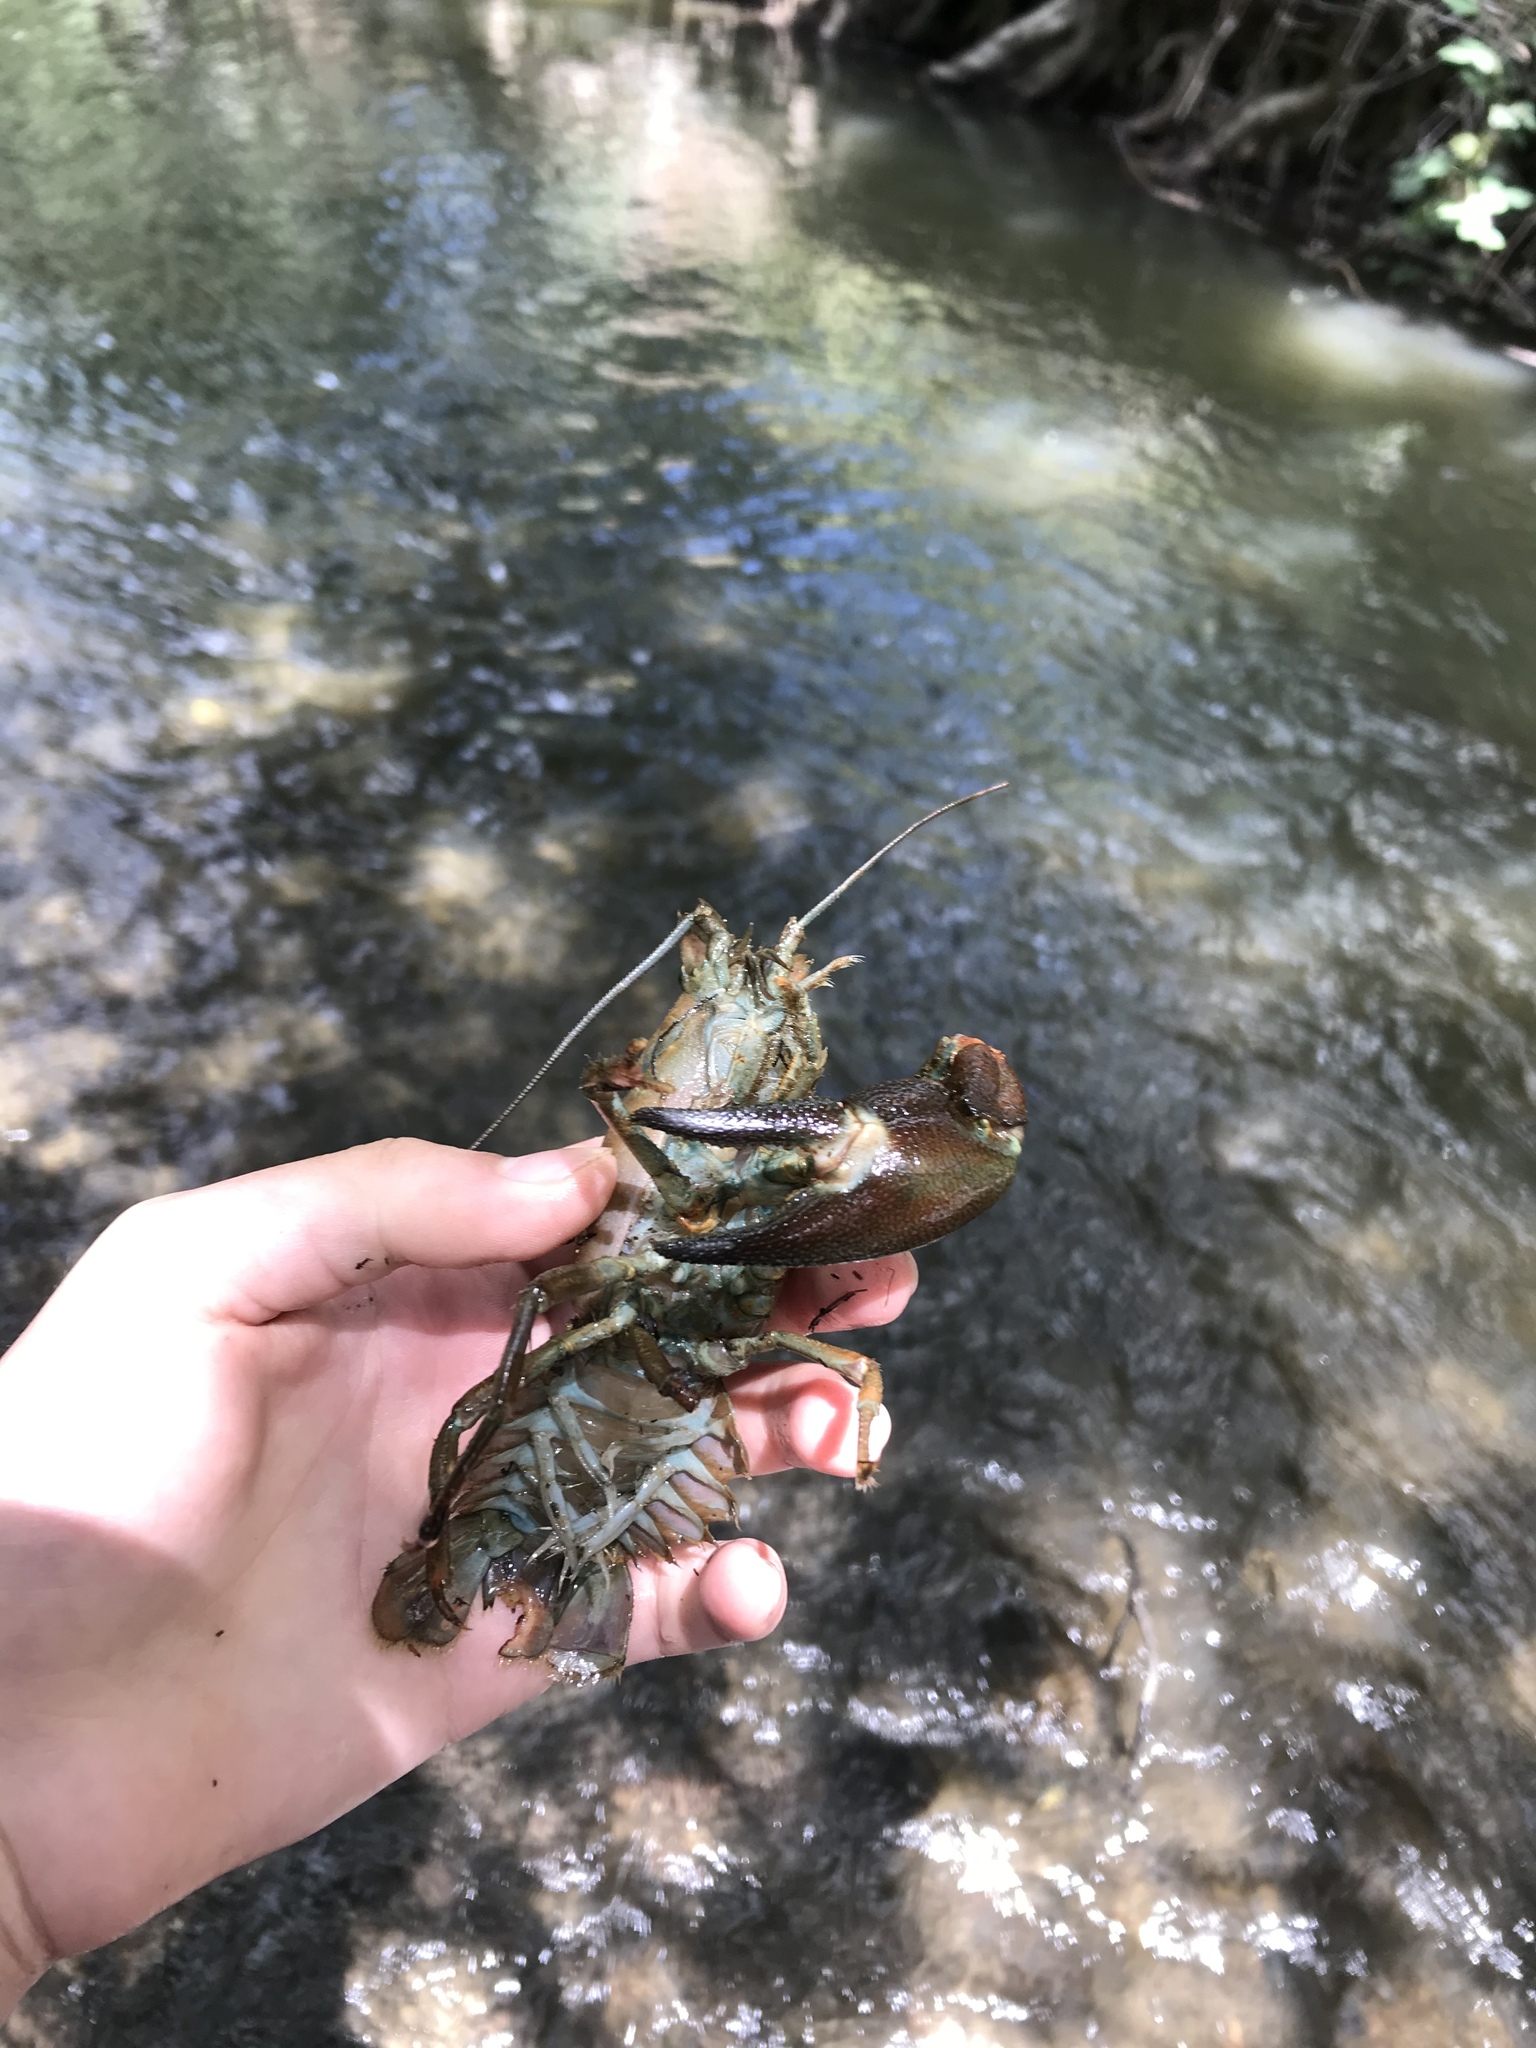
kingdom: Animalia
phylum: Arthropoda
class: Malacostraca
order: Decapoda
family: Astacidae
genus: Pacifastacus
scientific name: Pacifastacus leniusculus
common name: Signal crayfish
